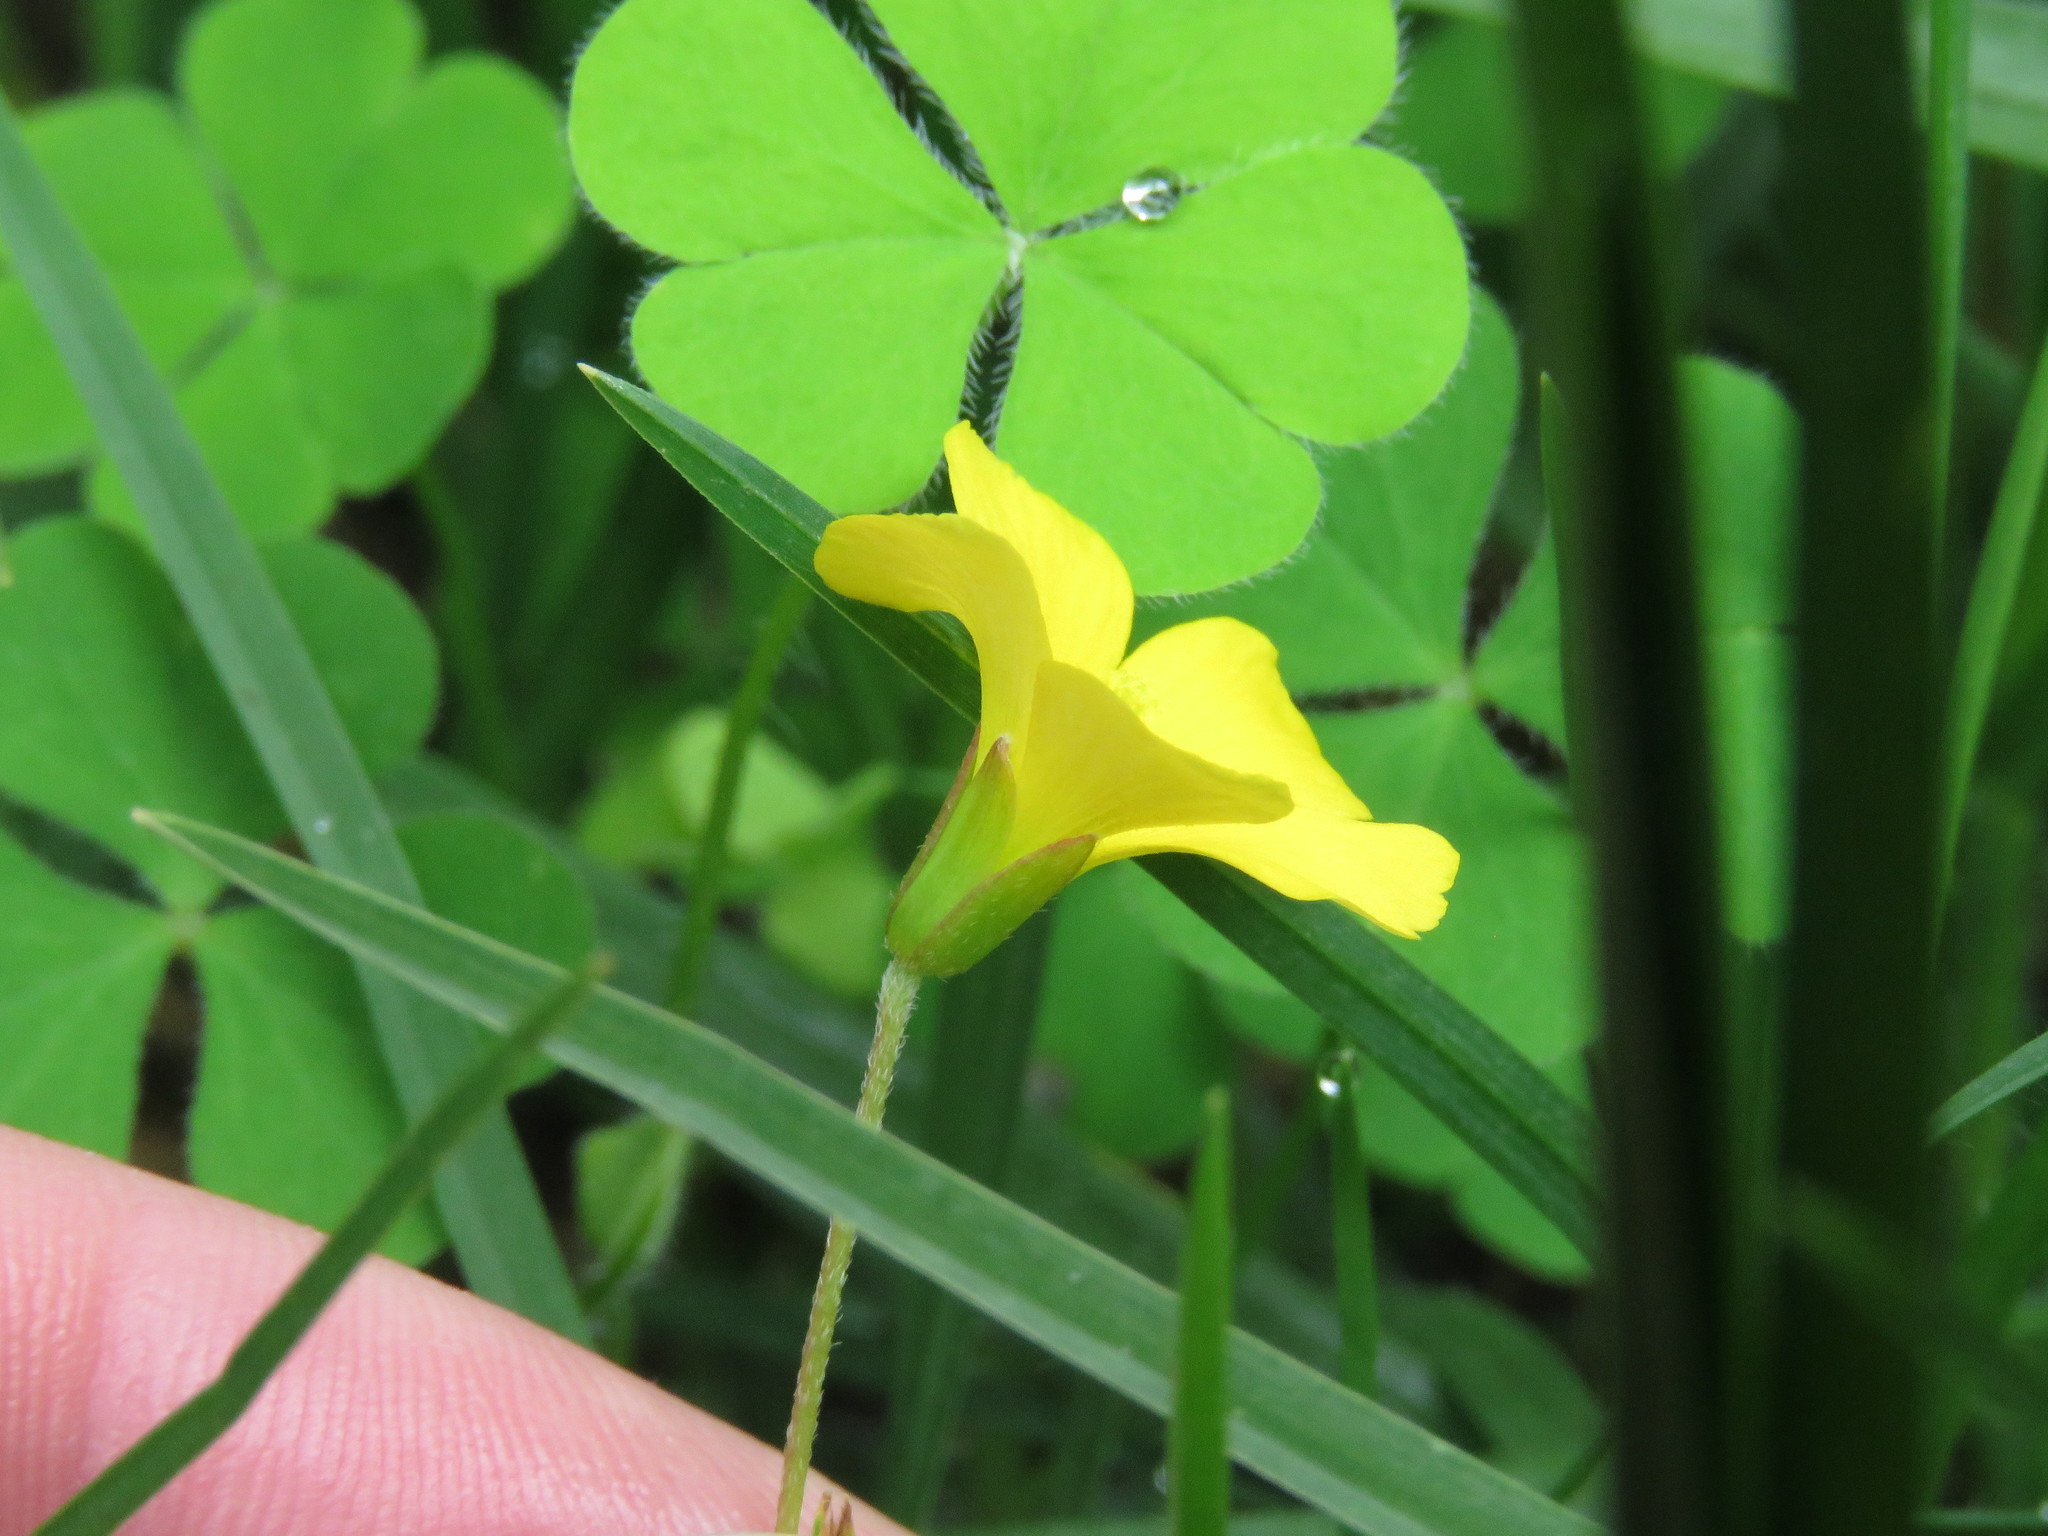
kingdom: Plantae
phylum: Tracheophyta
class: Magnoliopsida
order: Oxalidales
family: Oxalidaceae
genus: Oxalis
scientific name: Oxalis corniculata
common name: Procumbent yellow-sorrel
